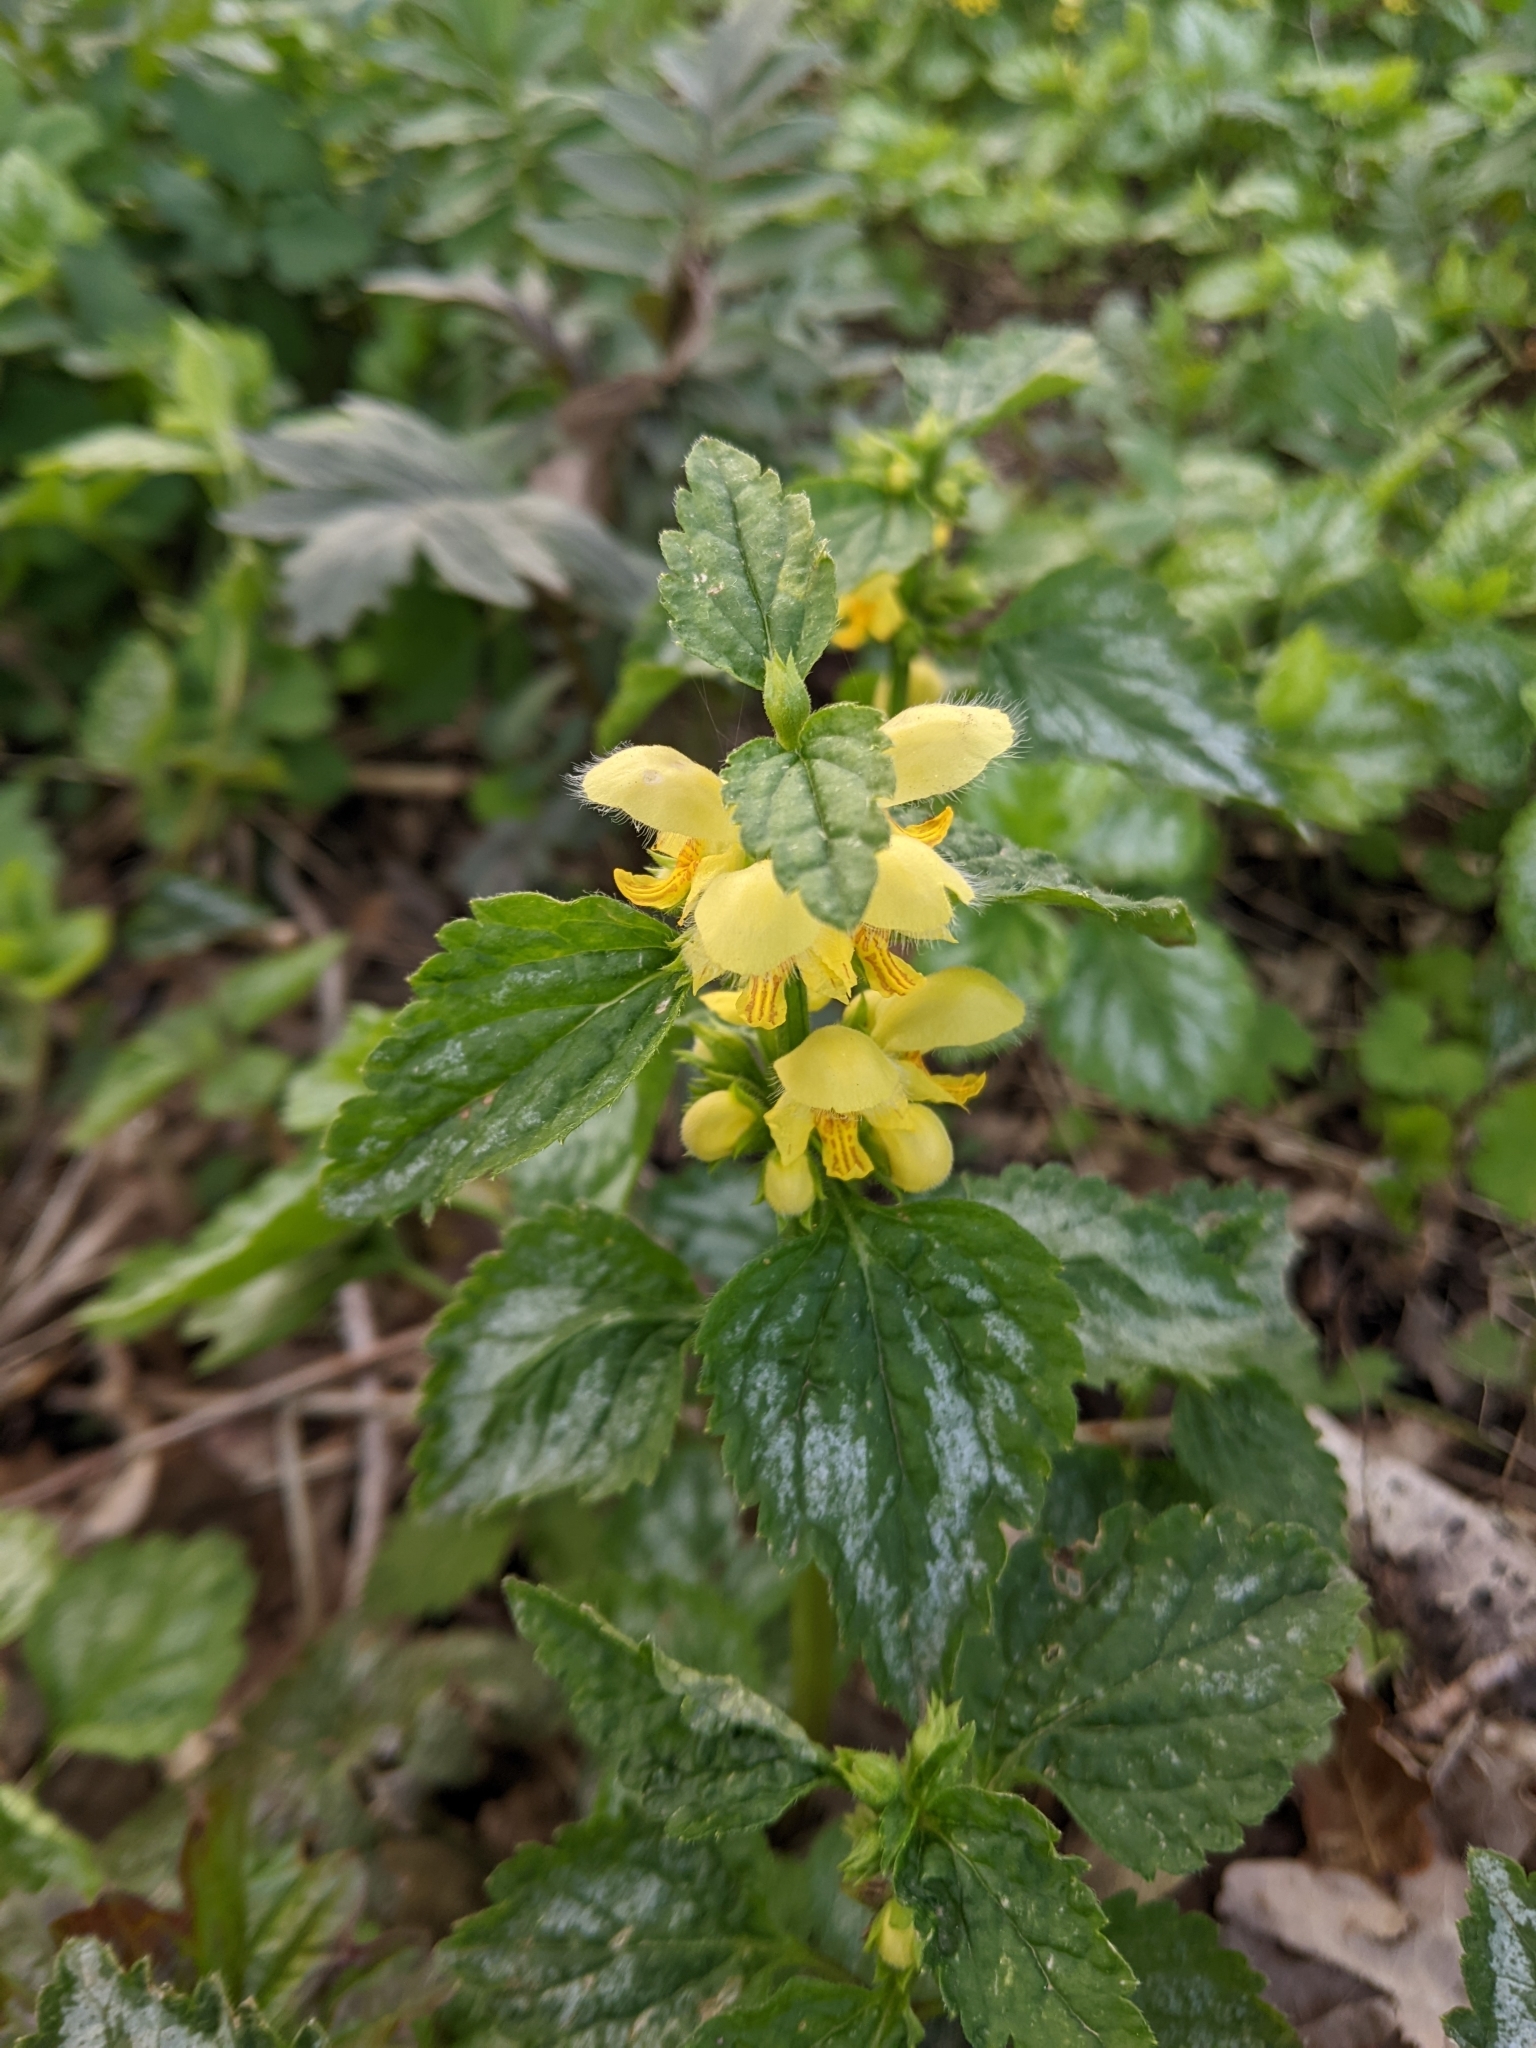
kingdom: Plantae
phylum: Tracheophyta
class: Magnoliopsida
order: Lamiales
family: Lamiaceae
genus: Lamium
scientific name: Lamium galeobdolon
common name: Yellow archangel
